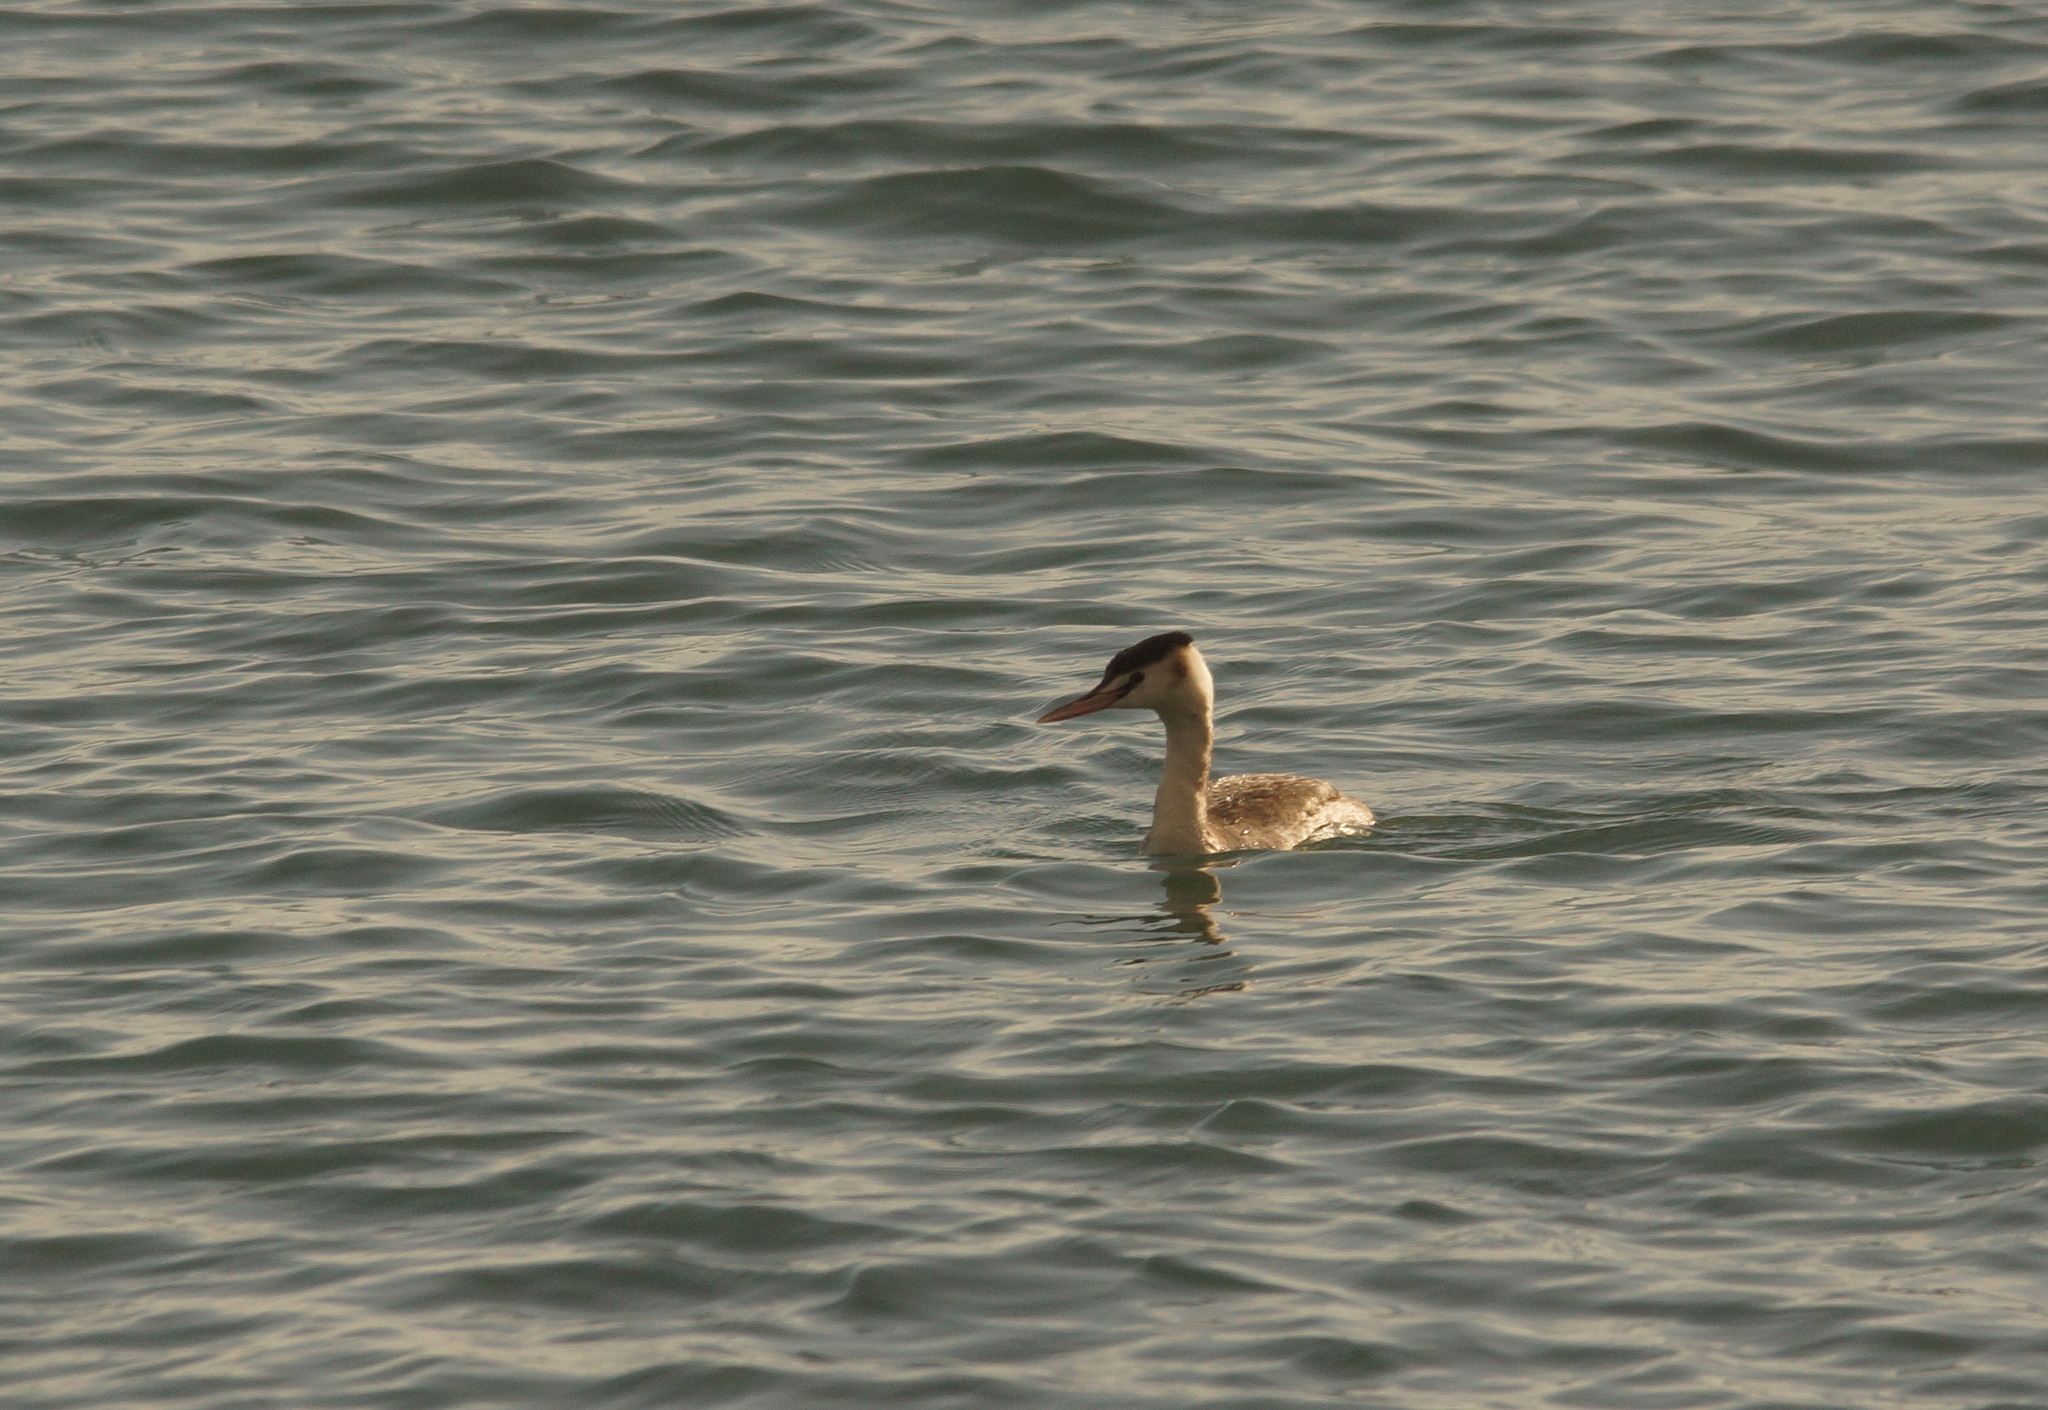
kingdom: Animalia
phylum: Chordata
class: Aves
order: Podicipediformes
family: Podicipedidae
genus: Podiceps
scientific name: Podiceps cristatus
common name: Great crested grebe
